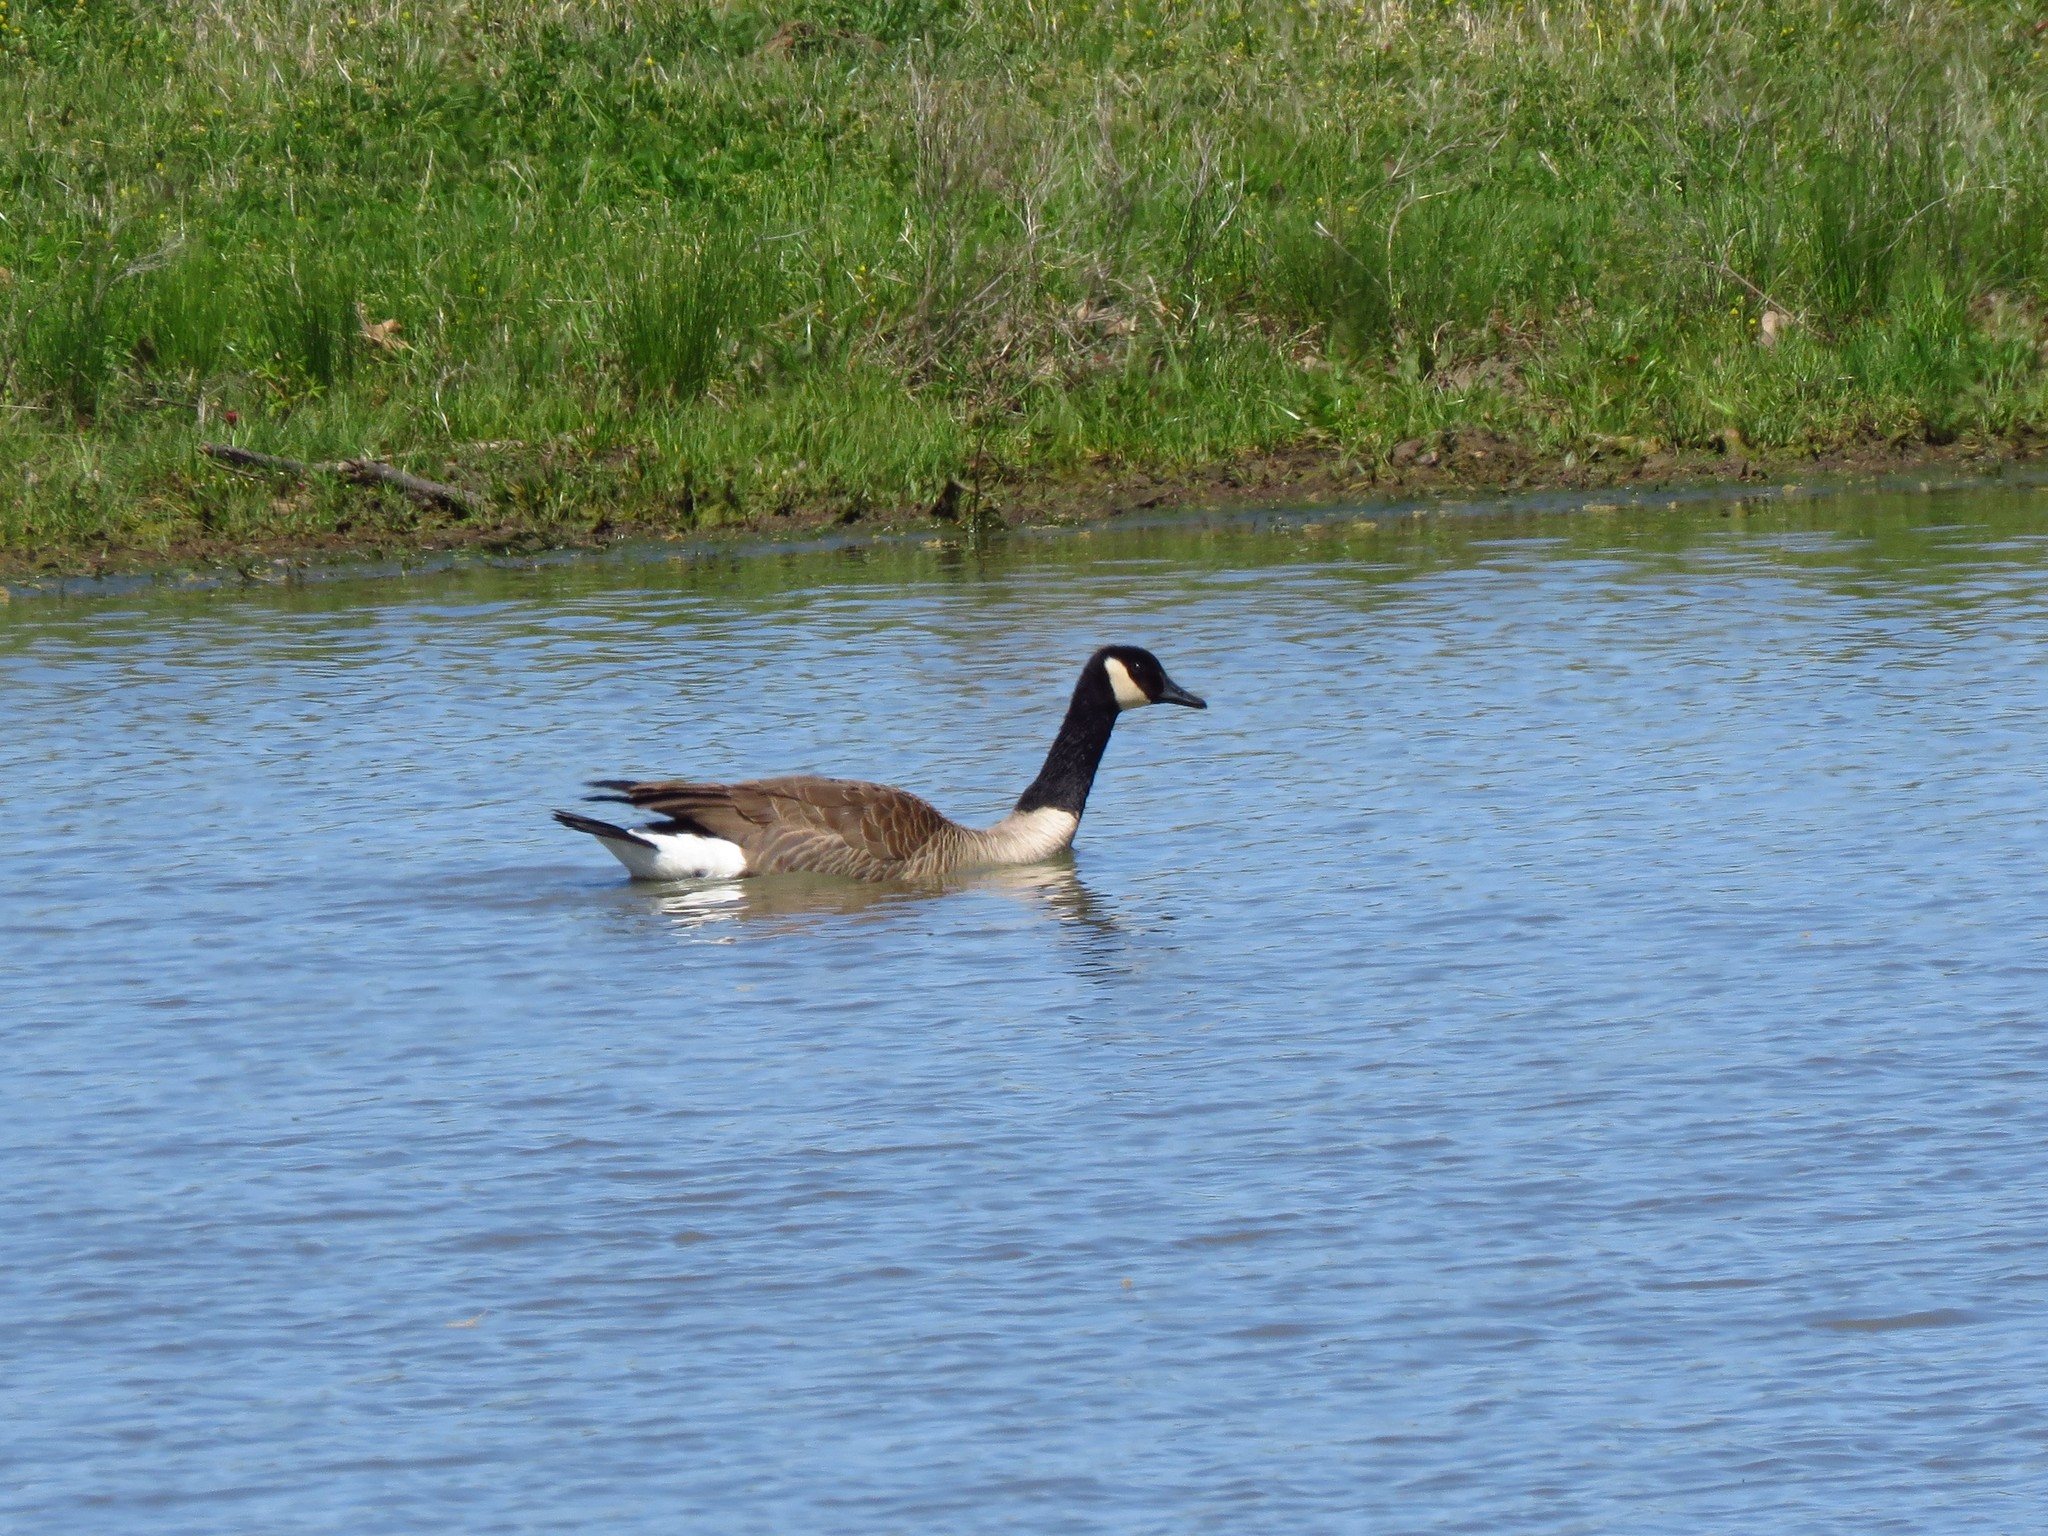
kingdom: Animalia
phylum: Chordata
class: Aves
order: Anseriformes
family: Anatidae
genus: Branta
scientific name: Branta canadensis
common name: Canada goose
